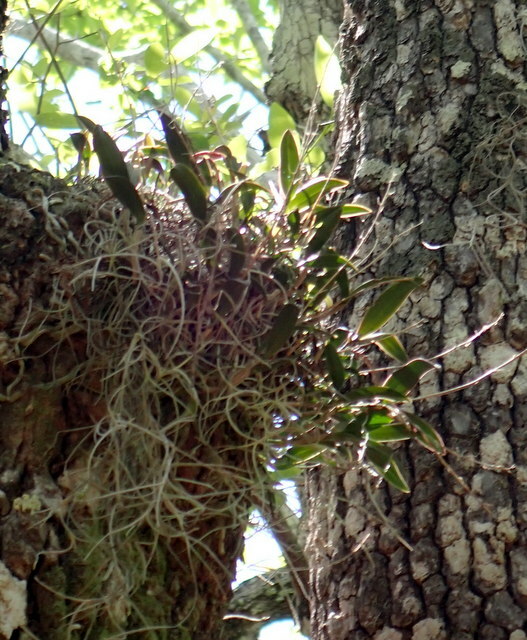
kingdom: Plantae
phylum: Tracheophyta
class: Liliopsida
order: Asparagales
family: Orchidaceae
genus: Epidendrum
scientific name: Epidendrum conopseum
